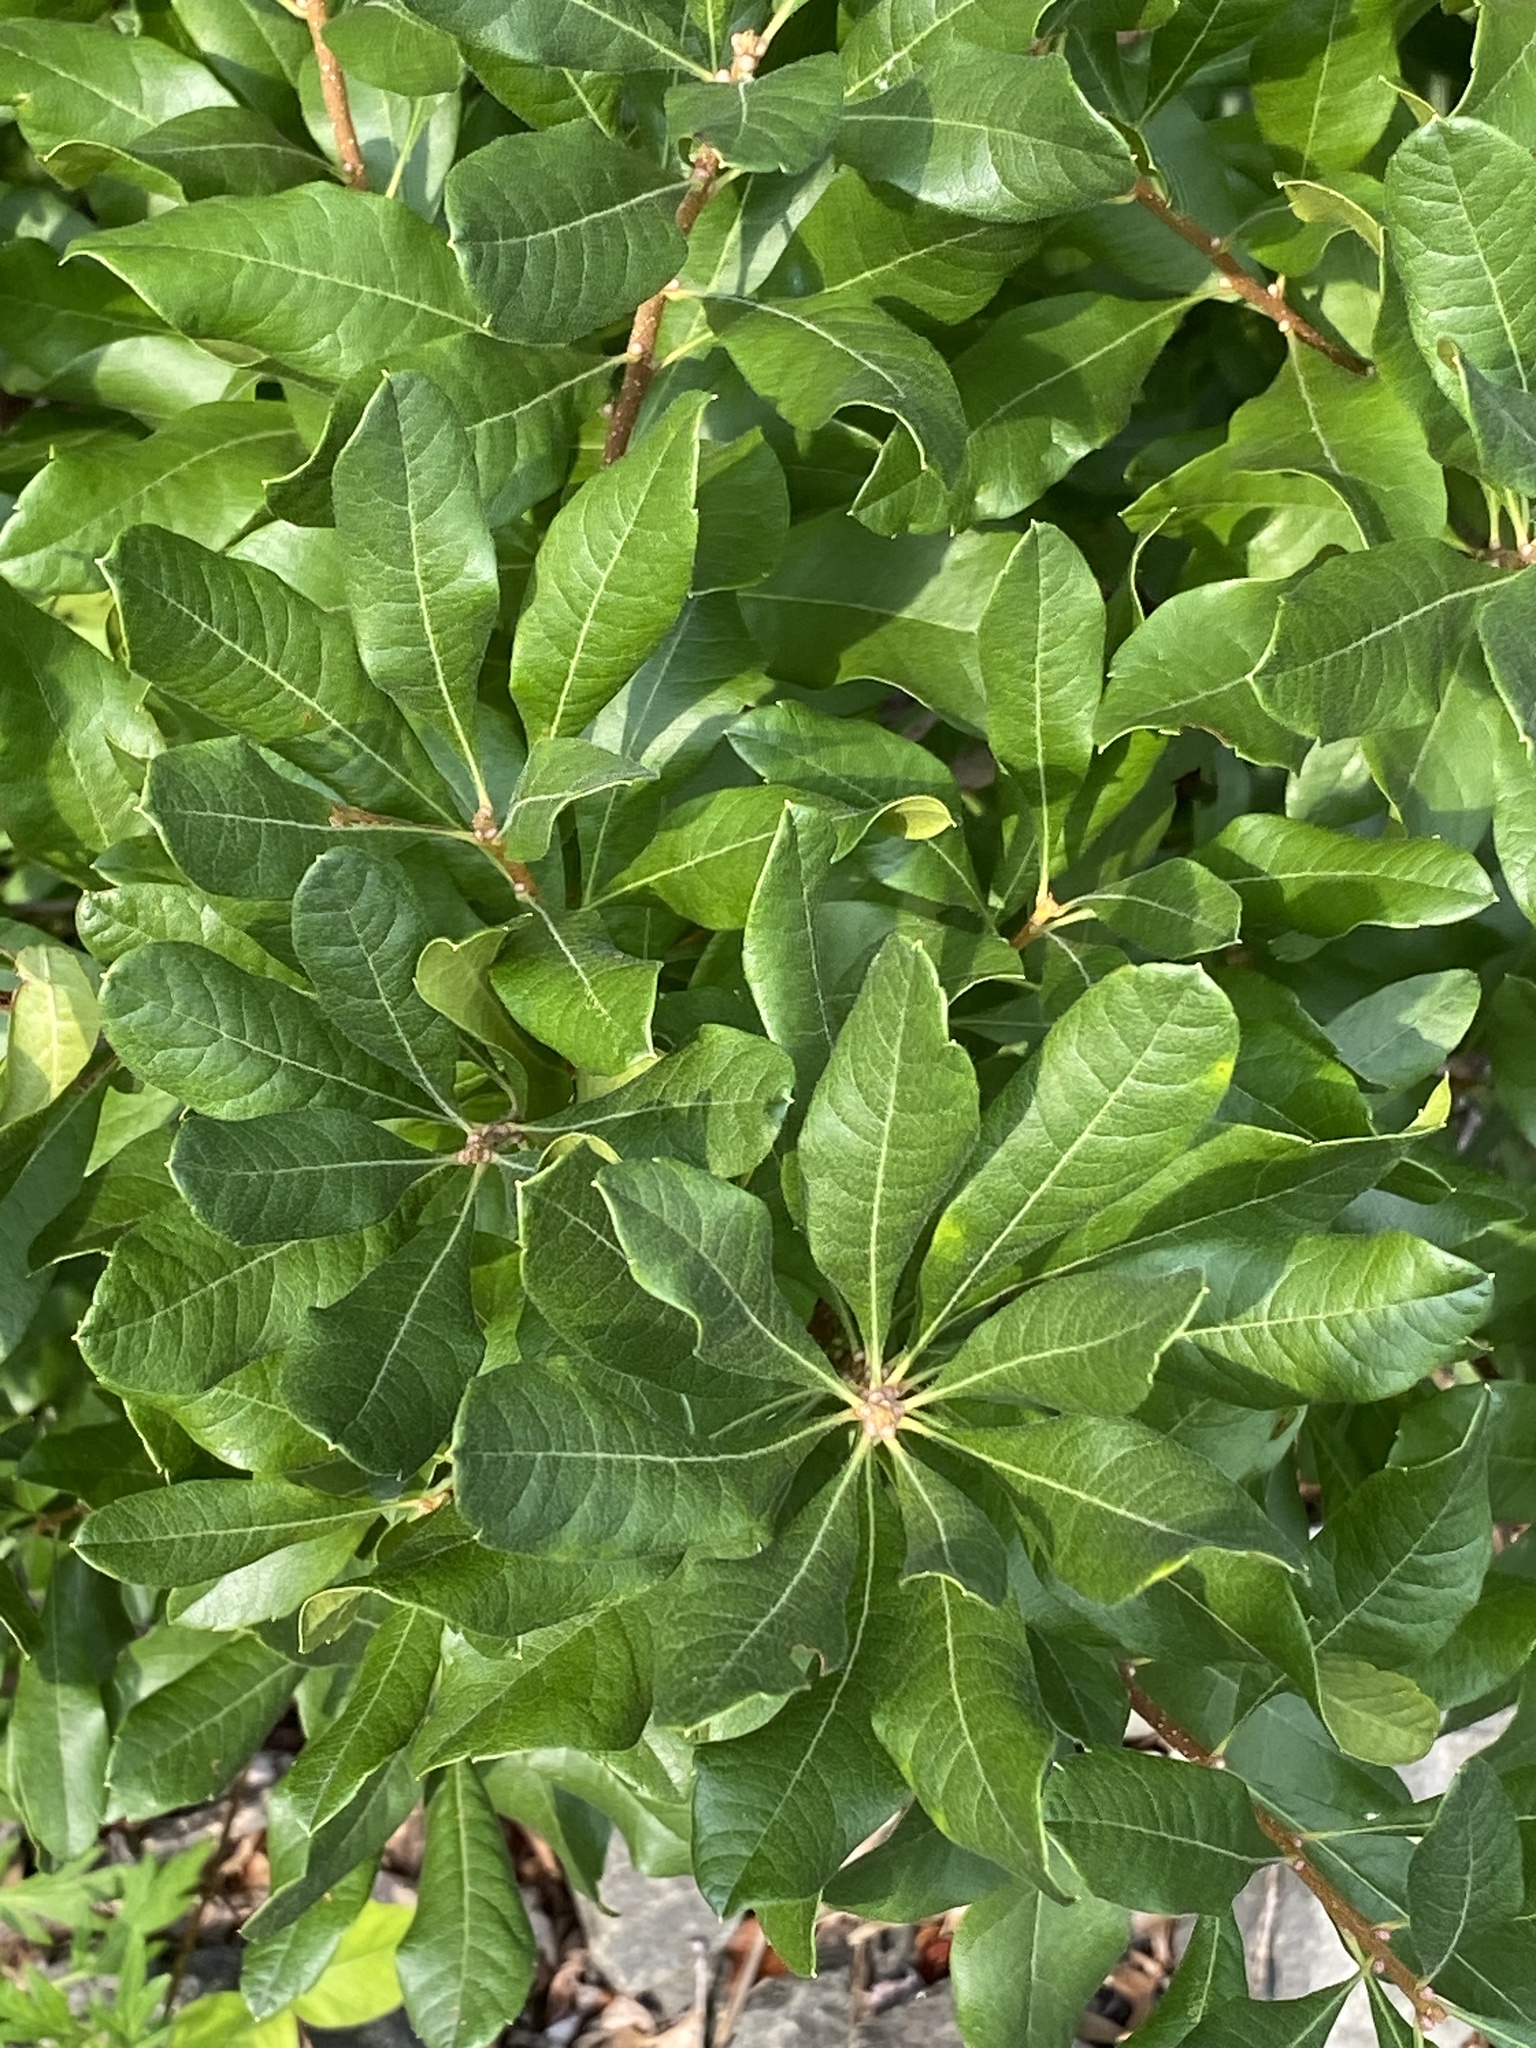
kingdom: Plantae
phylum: Tracheophyta
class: Magnoliopsida
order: Fagales
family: Myricaceae
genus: Morella
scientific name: Morella pensylvanica
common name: Northern bayberry
